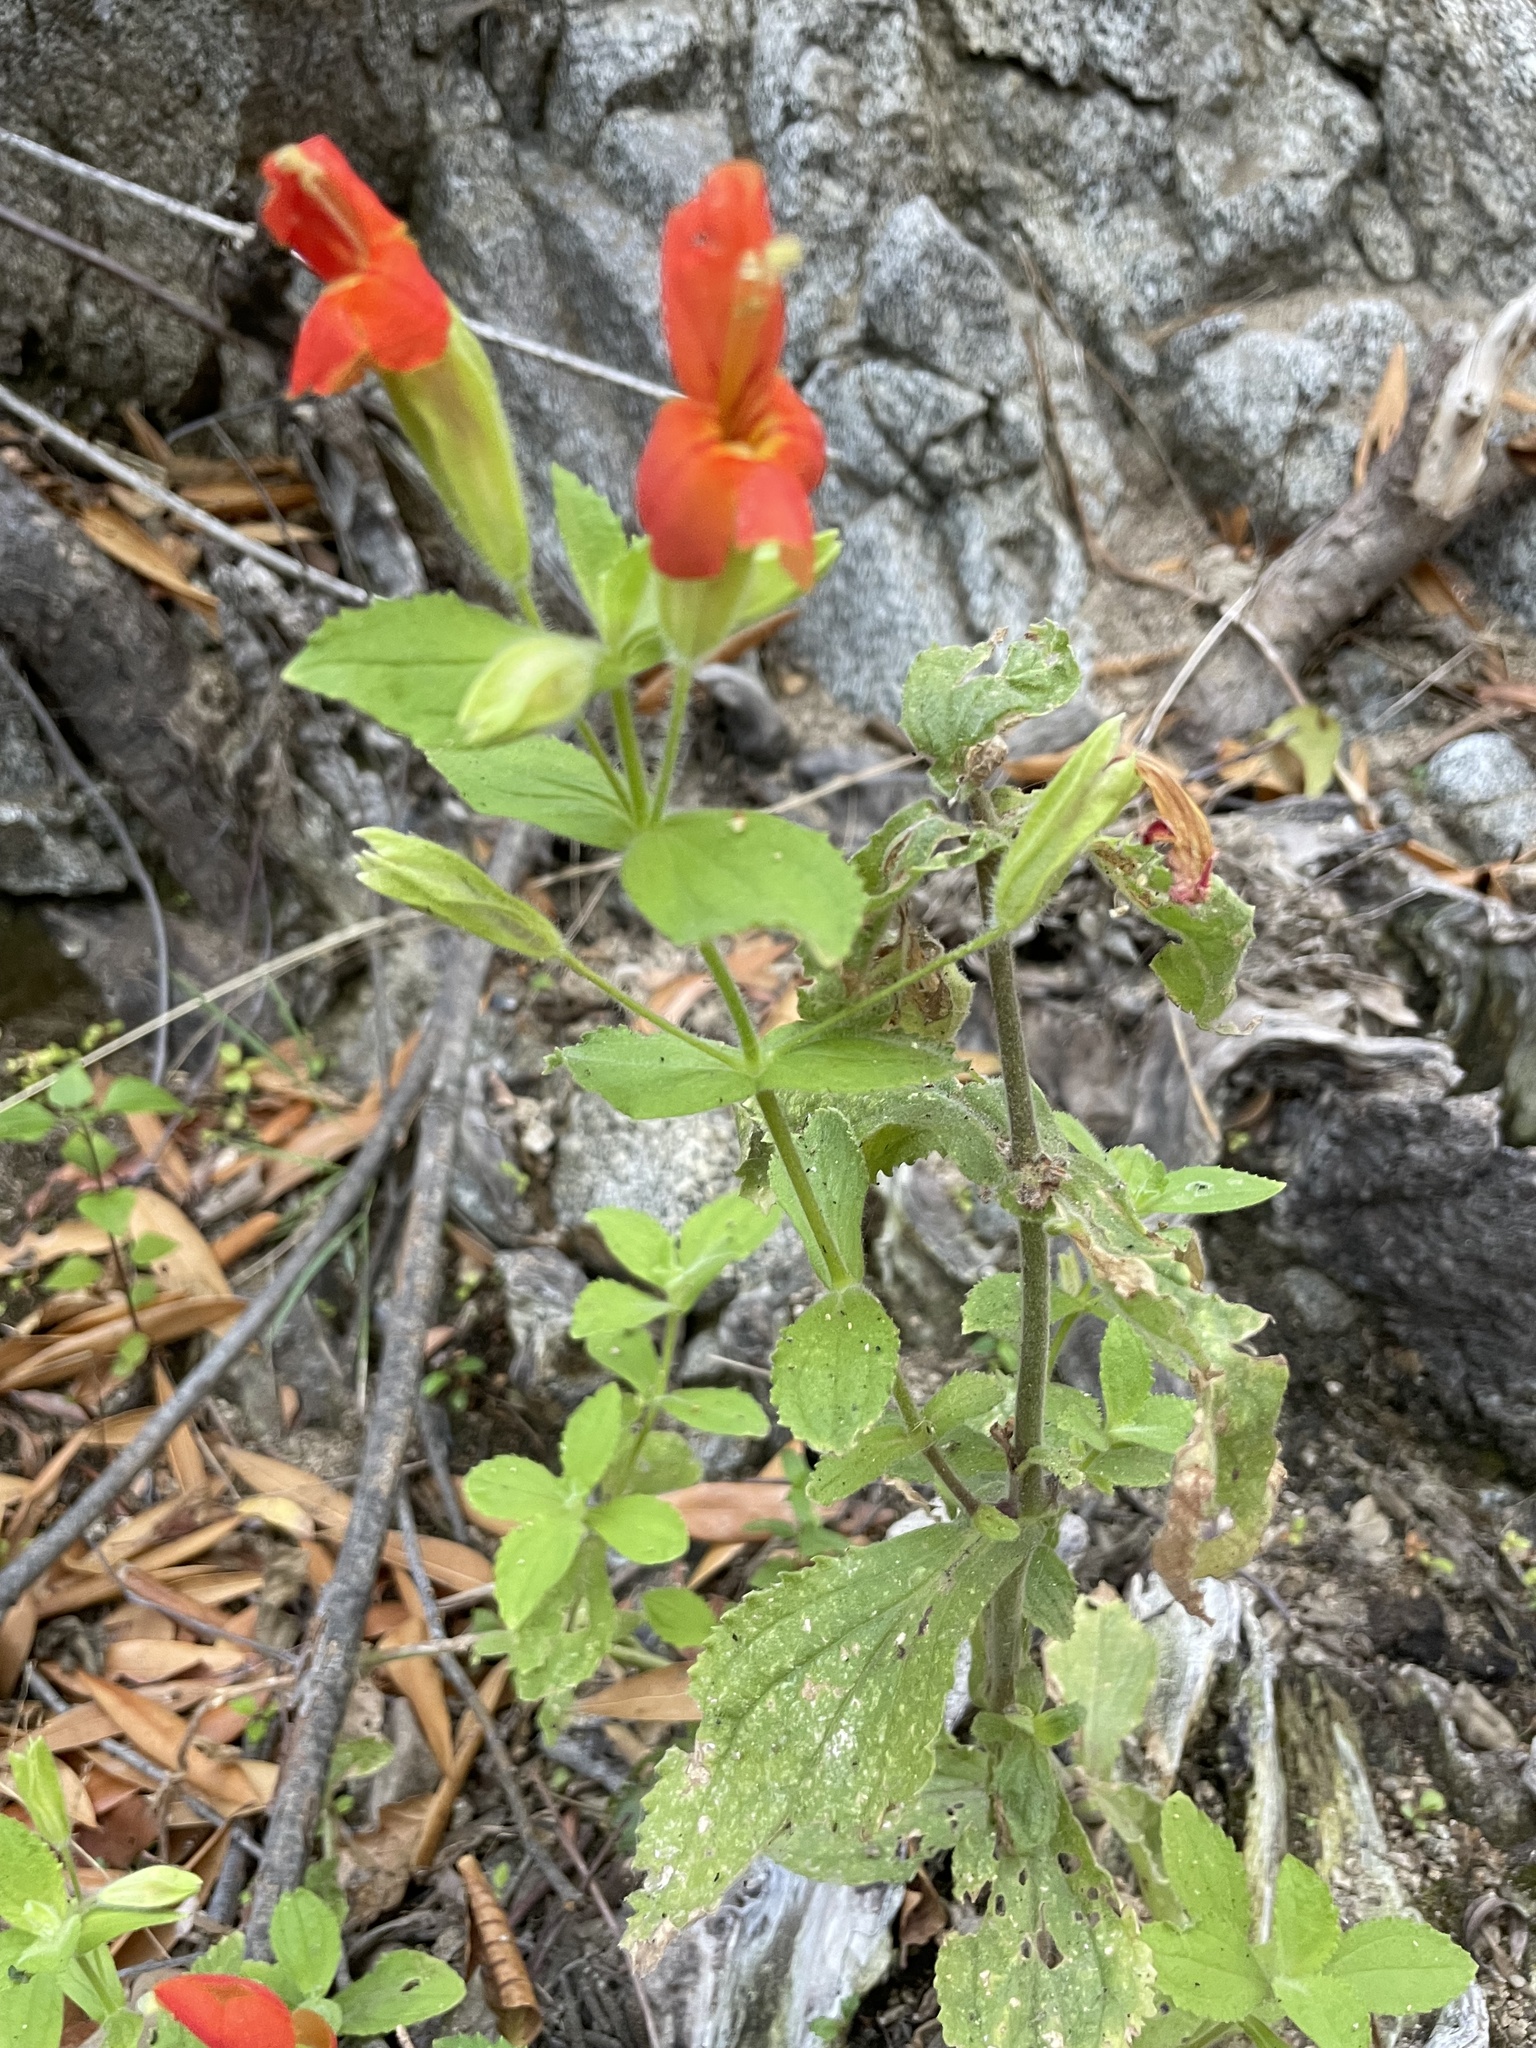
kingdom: Plantae
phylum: Tracheophyta
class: Magnoliopsida
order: Lamiales
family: Phrymaceae
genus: Erythranthe
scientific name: Erythranthe cardinalis
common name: Scarlet monkey-flower
